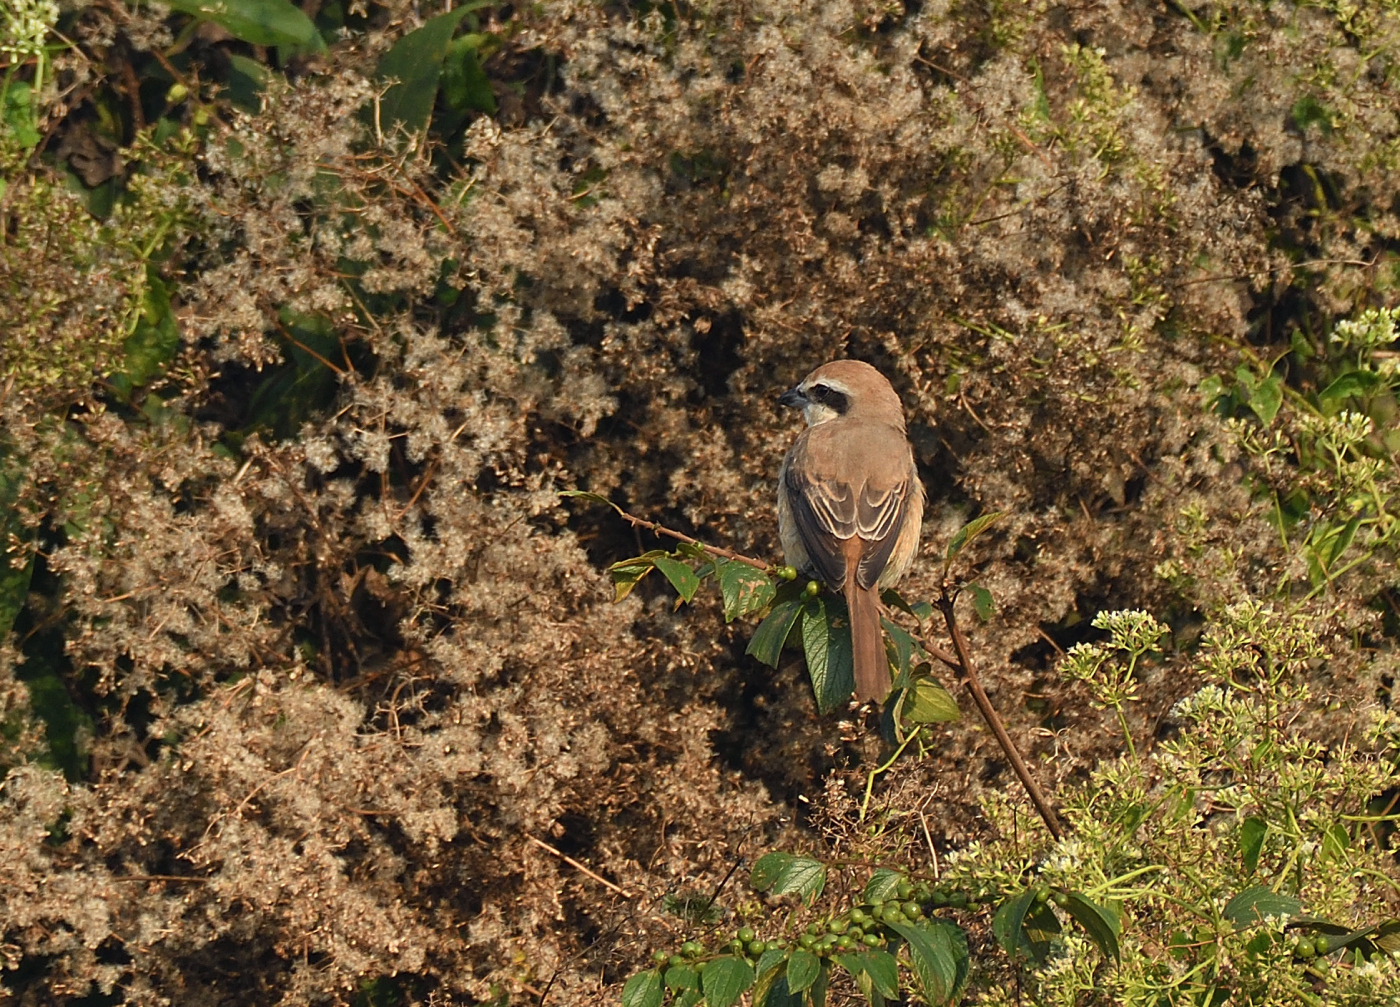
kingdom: Animalia
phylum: Chordata
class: Aves
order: Passeriformes
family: Laniidae
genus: Lanius
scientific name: Lanius cristatus
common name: Brown shrike
